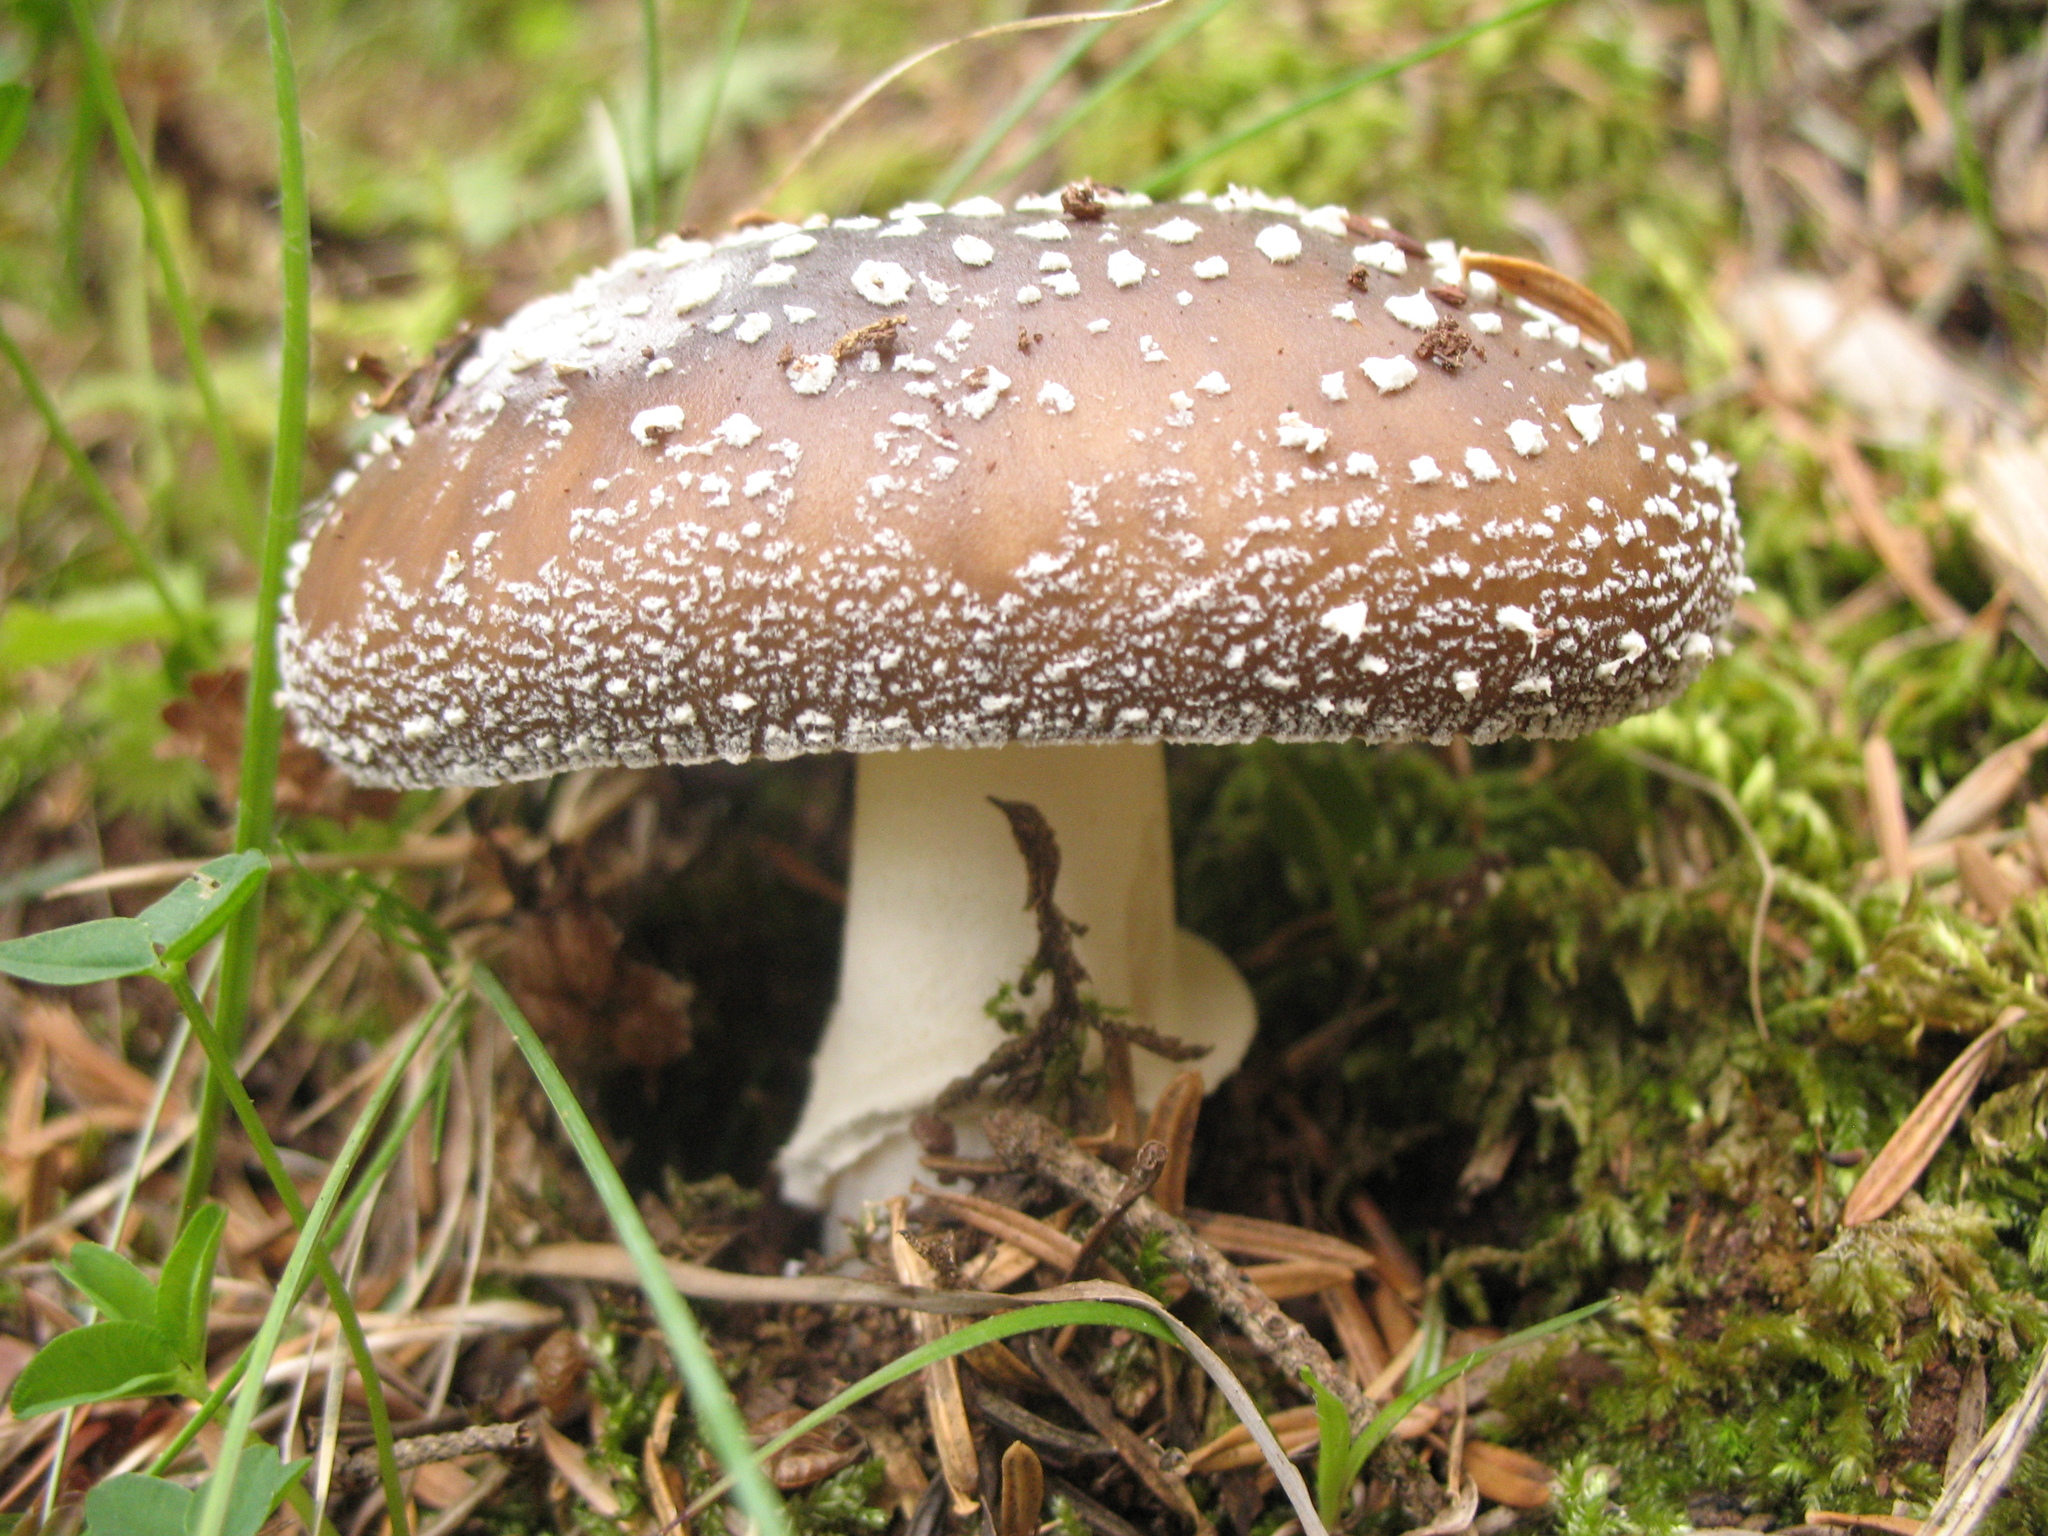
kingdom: Fungi
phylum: Basidiomycota
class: Agaricomycetes
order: Agaricales
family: Amanitaceae
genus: Amanita
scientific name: Amanita pantherina
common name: Panthercap
